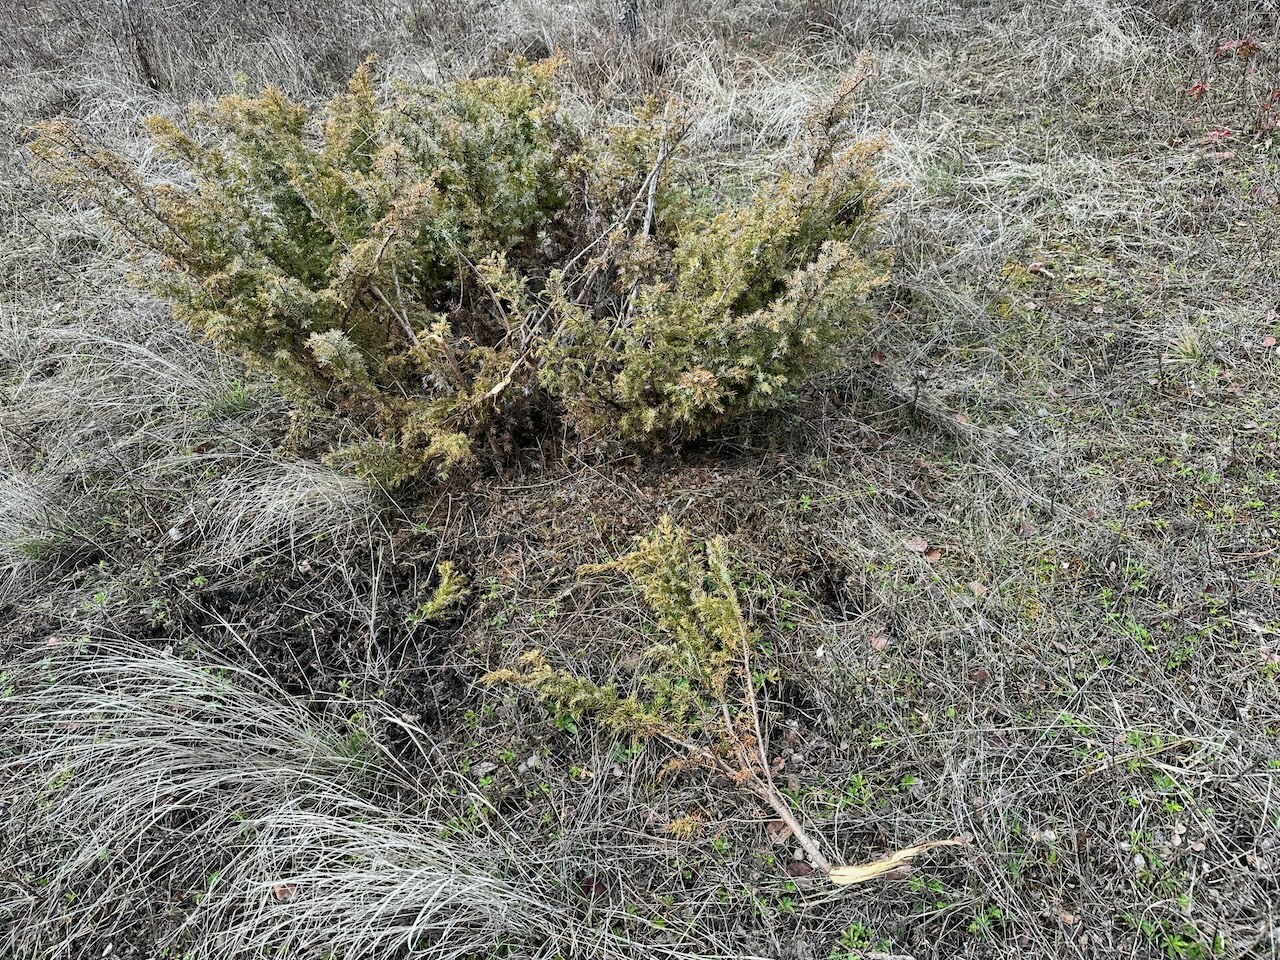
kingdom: Plantae
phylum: Tracheophyta
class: Pinopsida
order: Pinales
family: Cupressaceae
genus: Juniperus
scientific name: Juniperus communis
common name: Common juniper
